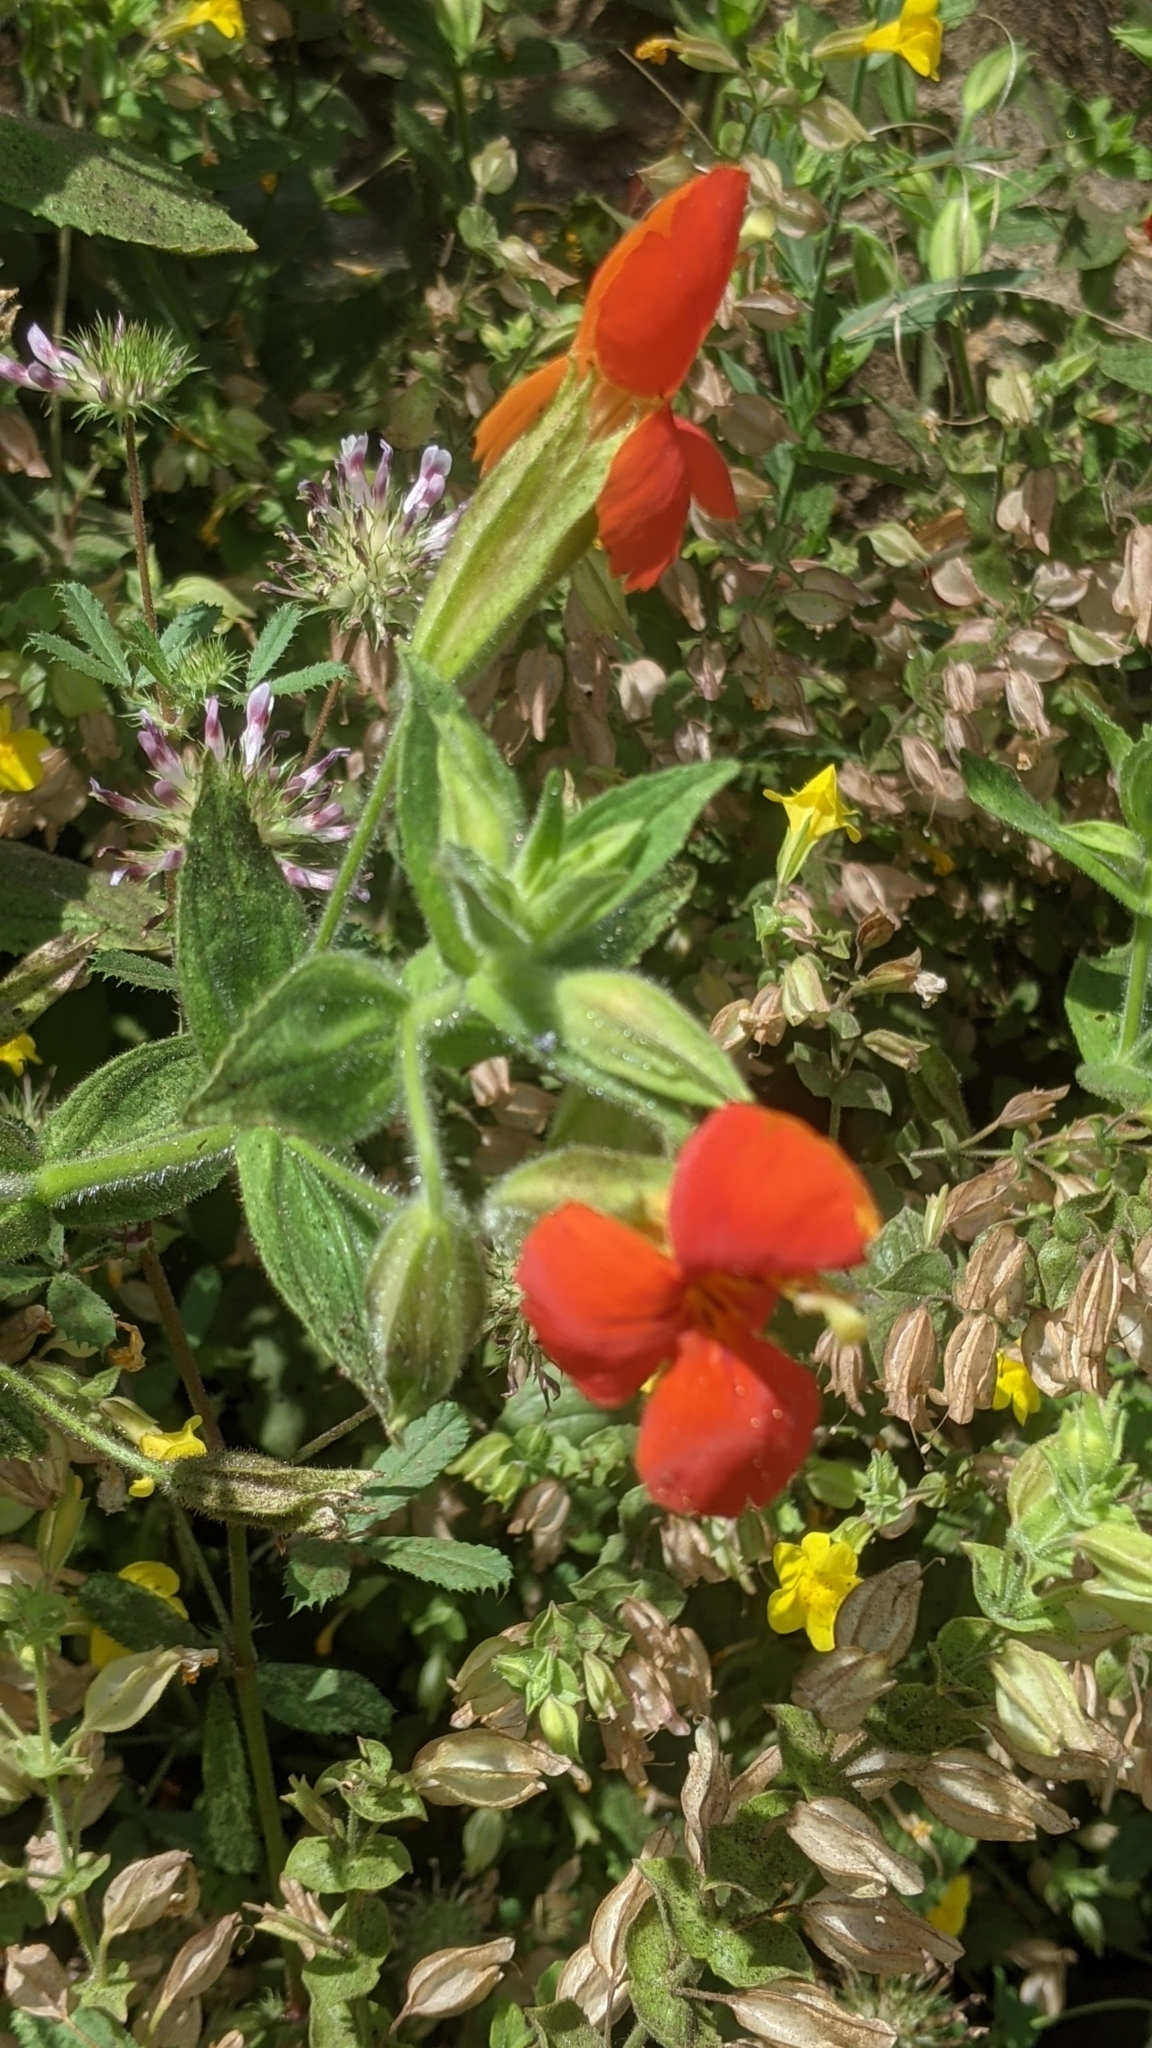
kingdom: Plantae
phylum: Tracheophyta
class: Magnoliopsida
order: Lamiales
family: Phrymaceae
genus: Erythranthe
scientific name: Erythranthe cardinalis
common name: Scarlet monkey-flower
